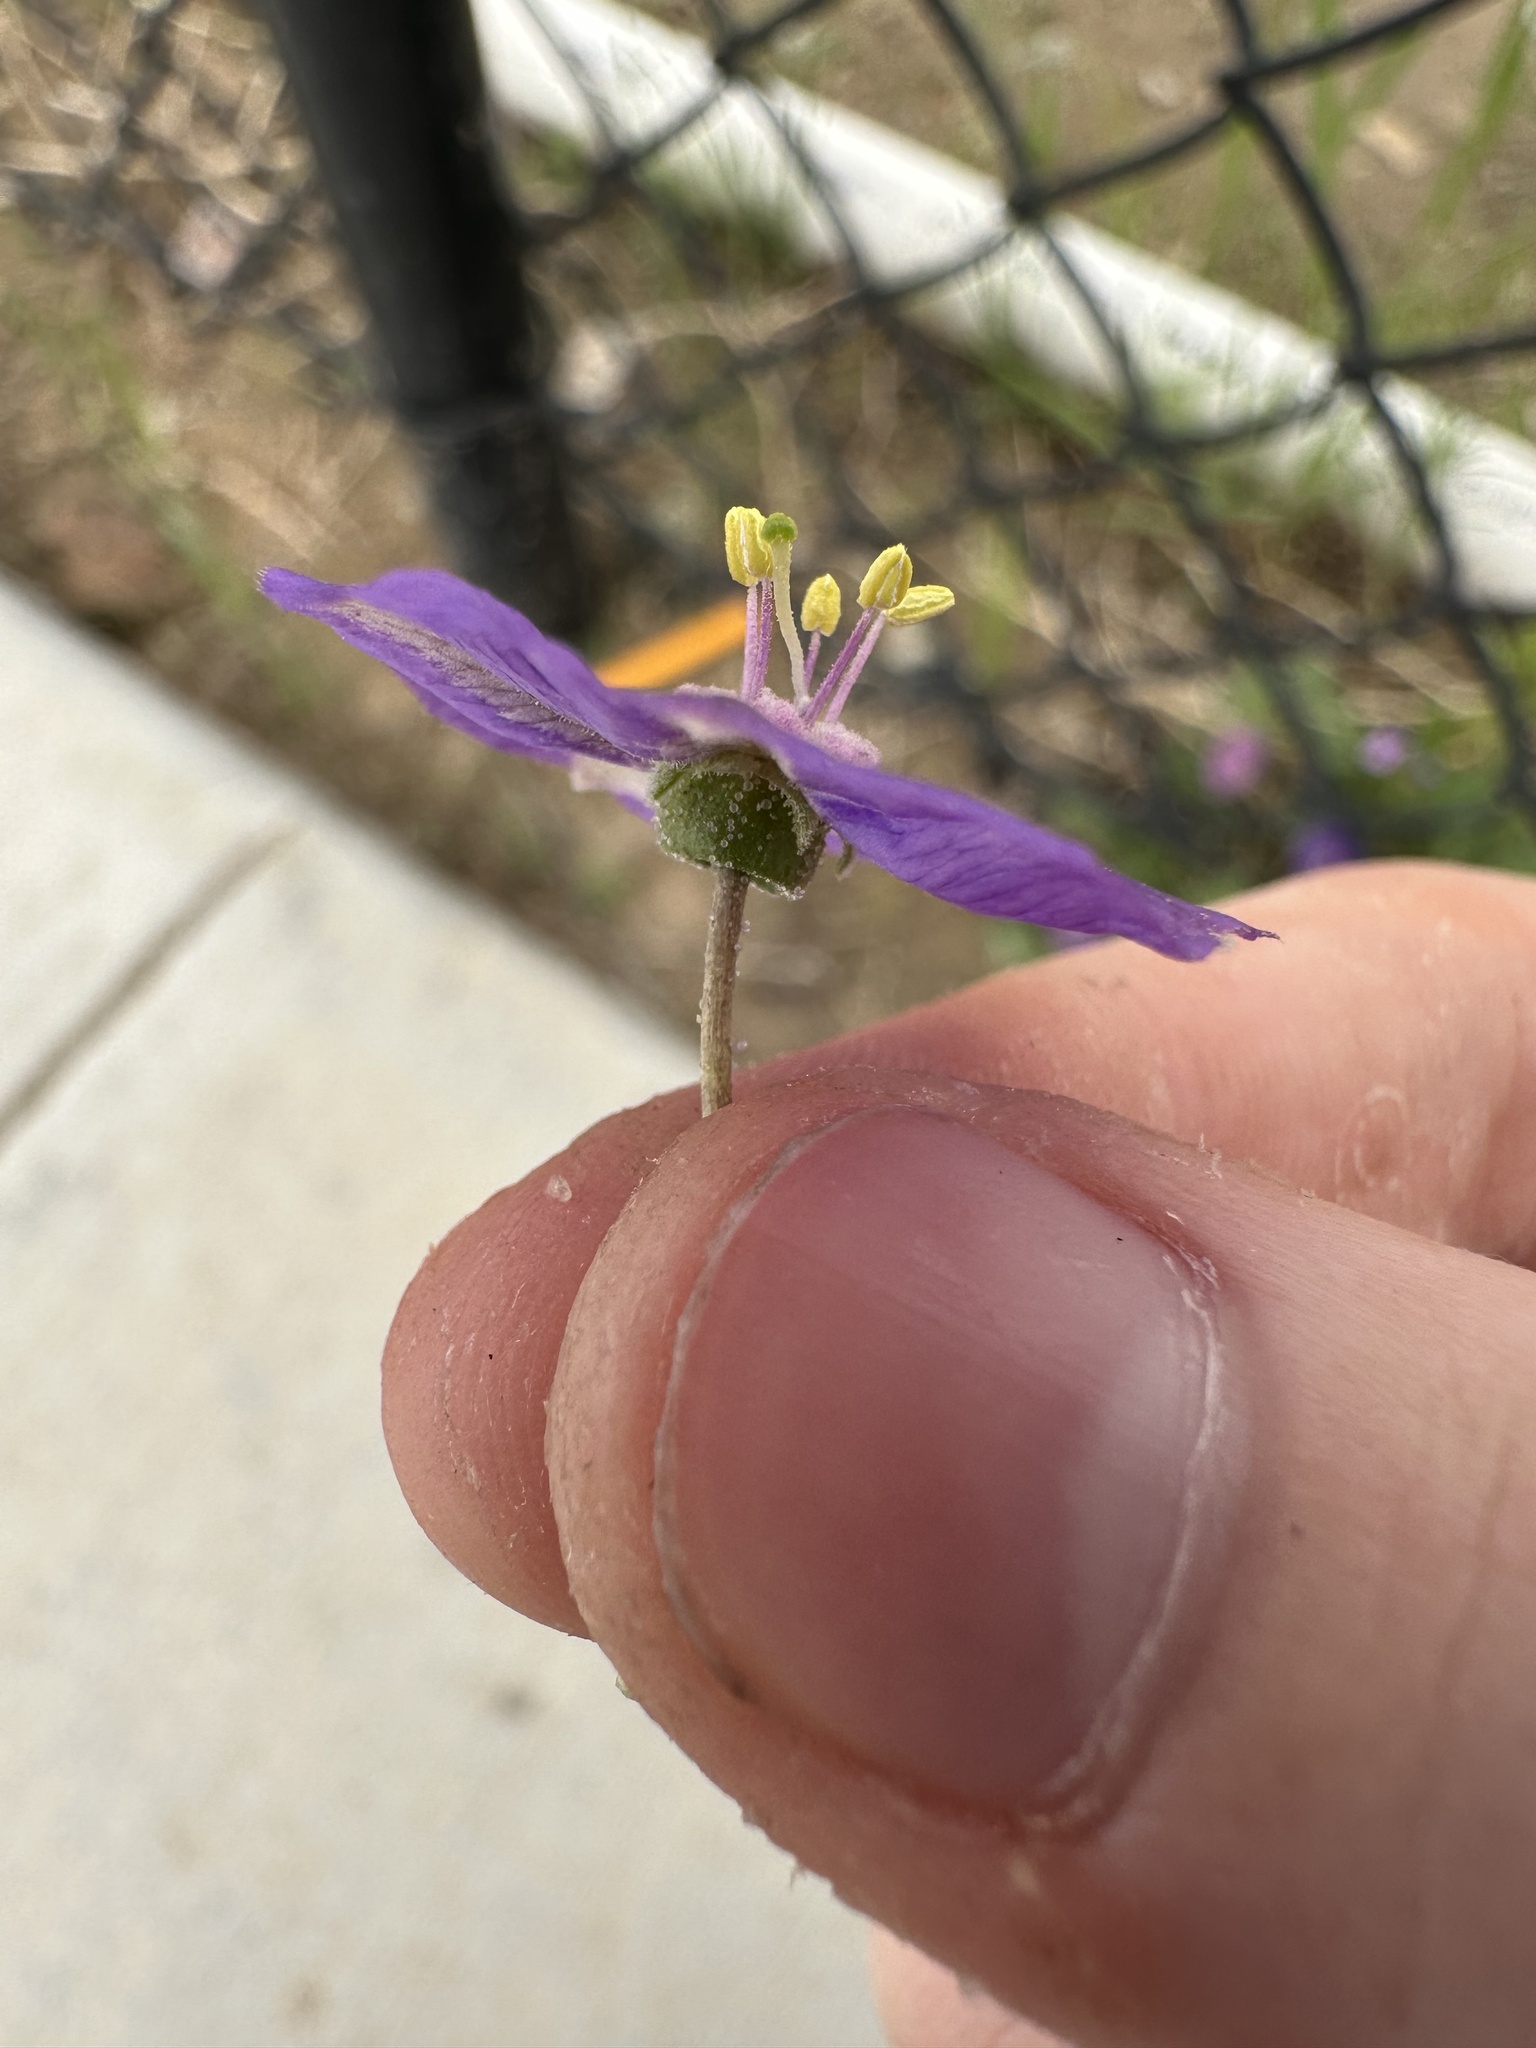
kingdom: Plantae
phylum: Tracheophyta
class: Magnoliopsida
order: Solanales
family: Solanaceae
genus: Quincula
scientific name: Quincula lobata
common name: Purple-ground-cherry
